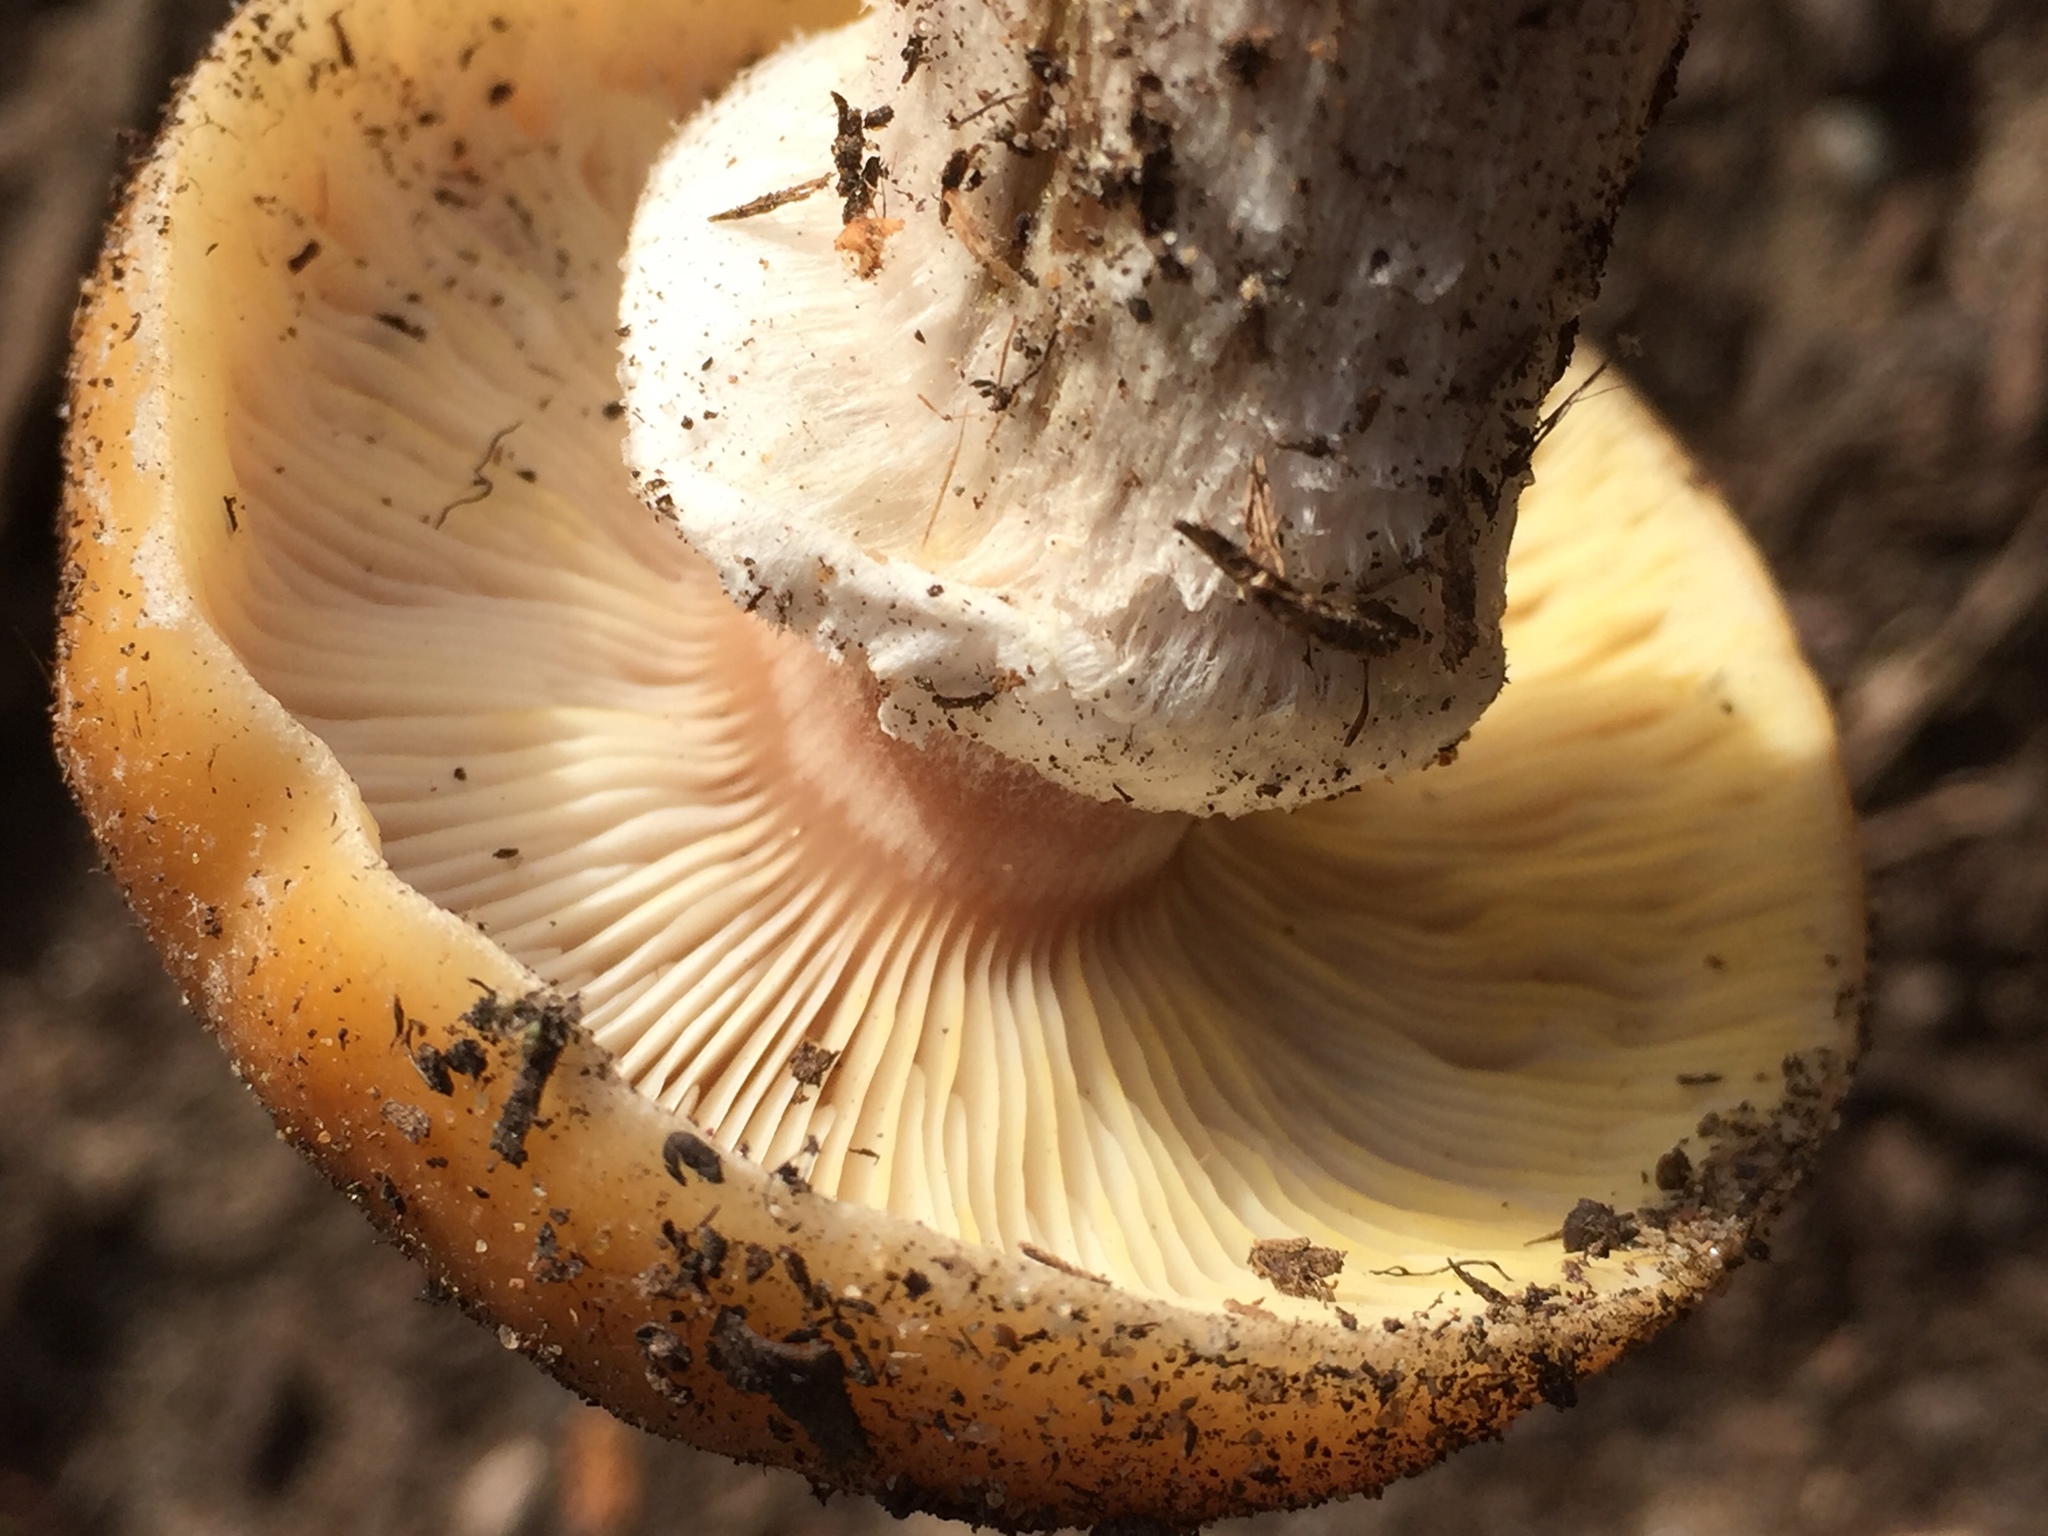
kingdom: Fungi
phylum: Basidiomycota
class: Agaricomycetes
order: Agaricales
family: Physalacriaceae
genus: Armillaria
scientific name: Armillaria mellea
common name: Honey fungus
